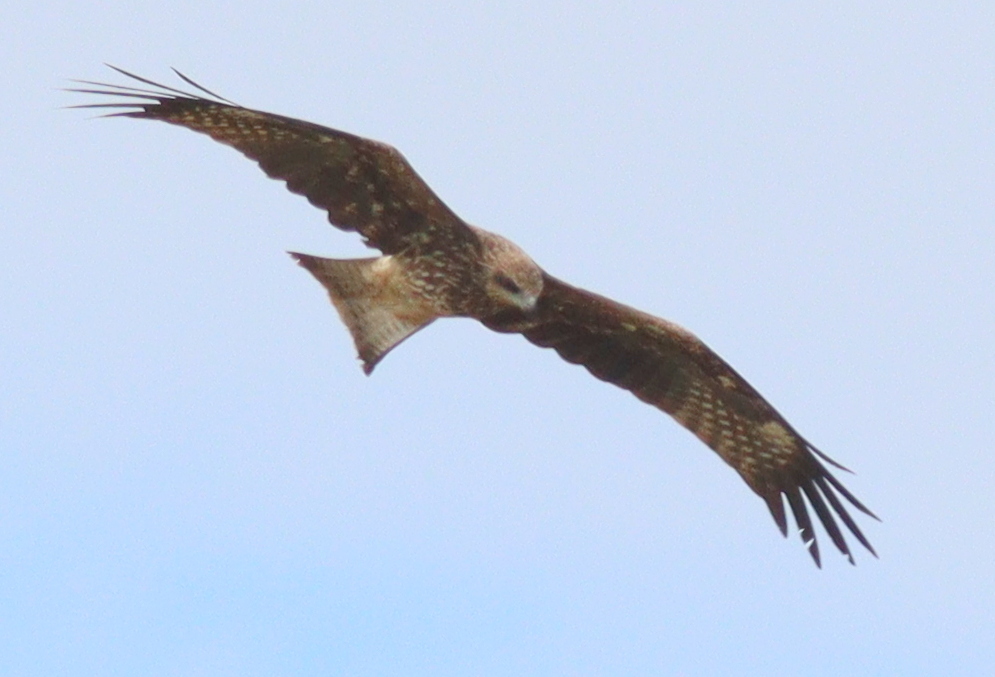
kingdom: Animalia
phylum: Chordata
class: Aves
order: Accipitriformes
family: Accipitridae
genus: Milvus
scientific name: Milvus migrans
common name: Black kite
